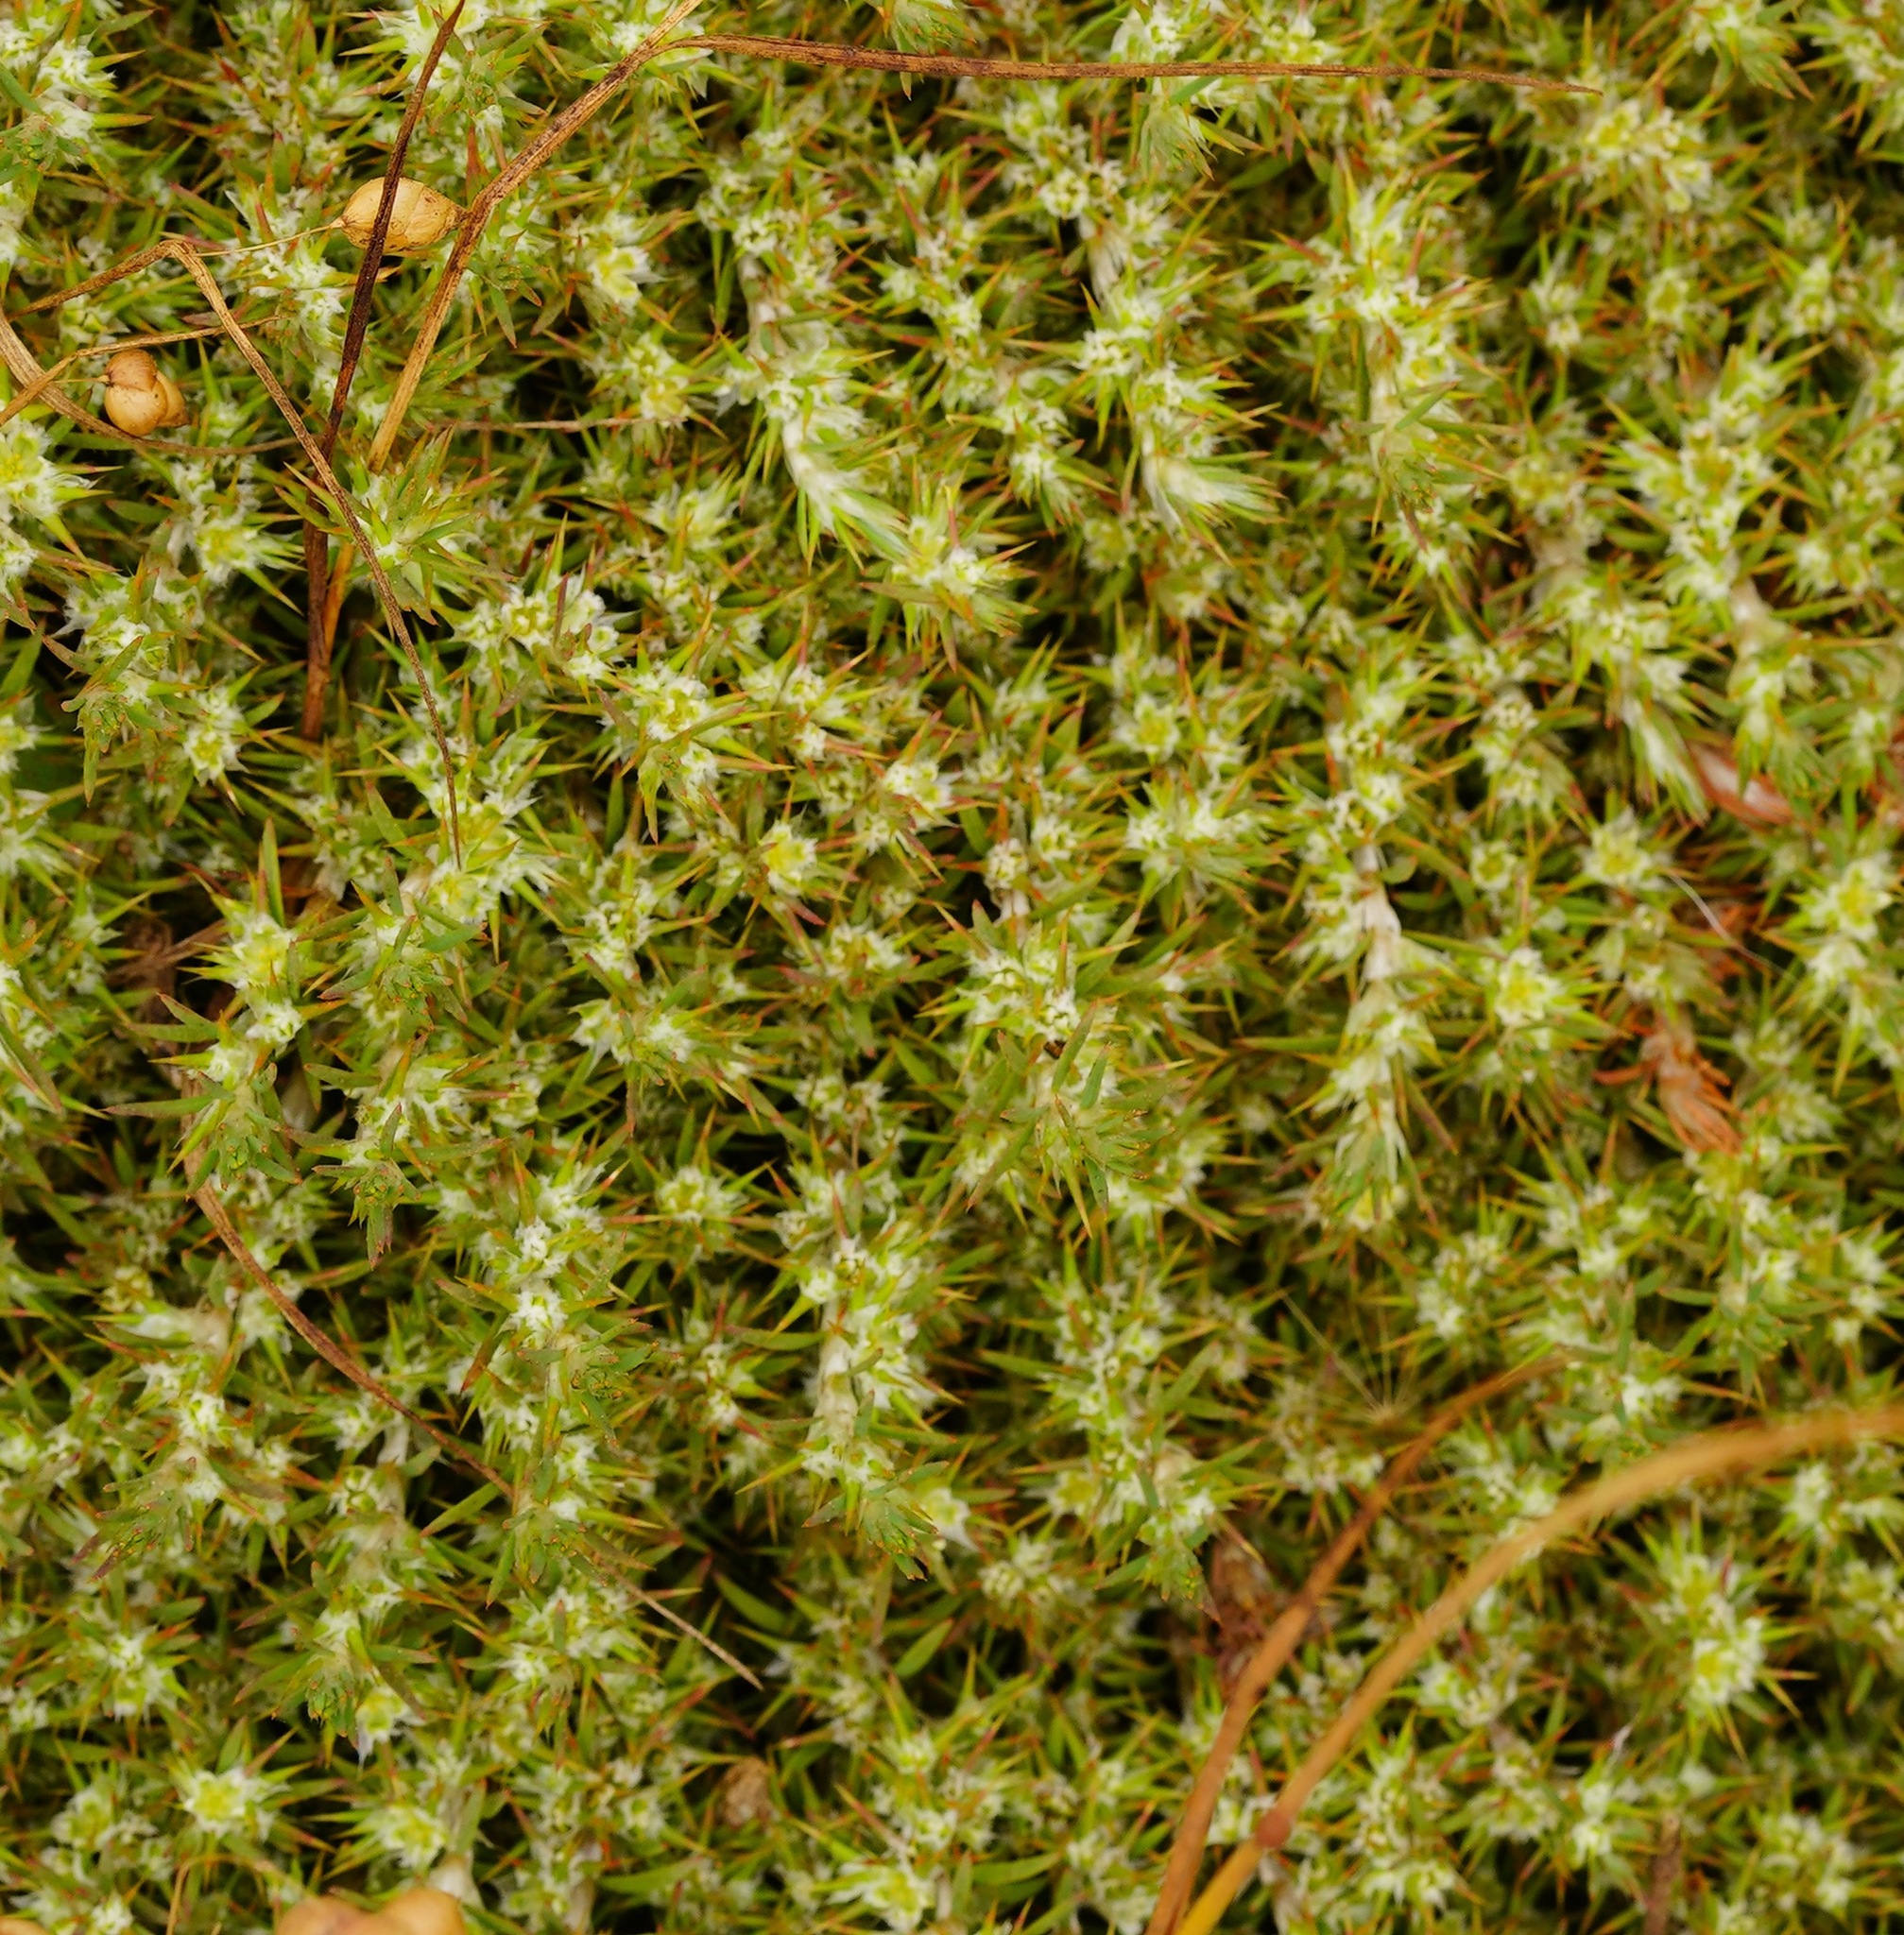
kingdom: Plantae
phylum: Tracheophyta
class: Magnoliopsida
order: Caryophyllales
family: Caryophyllaceae
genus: Cardionema
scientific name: Cardionema ramosissima
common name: Sandcarpet
